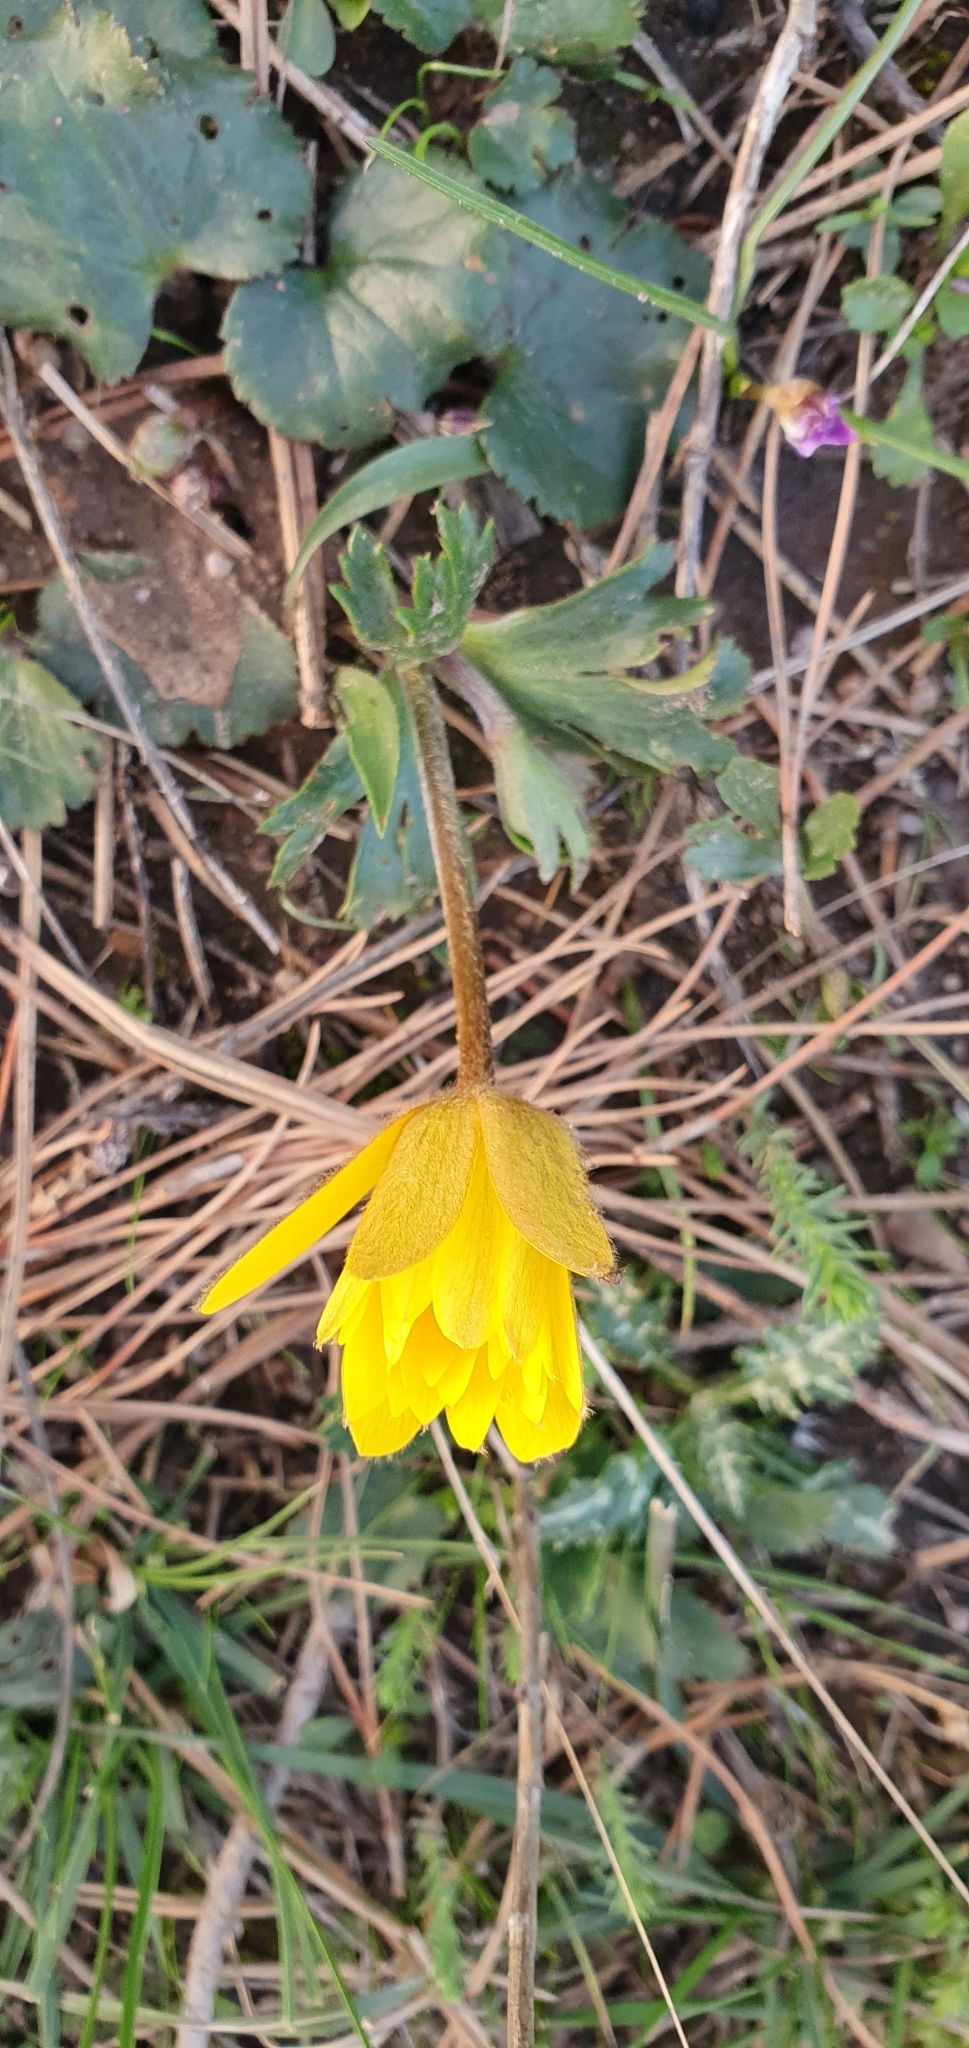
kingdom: Plantae
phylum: Tracheophyta
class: Magnoliopsida
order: Ranunculales
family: Ranunculaceae
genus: Anemone
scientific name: Anemone palmata
